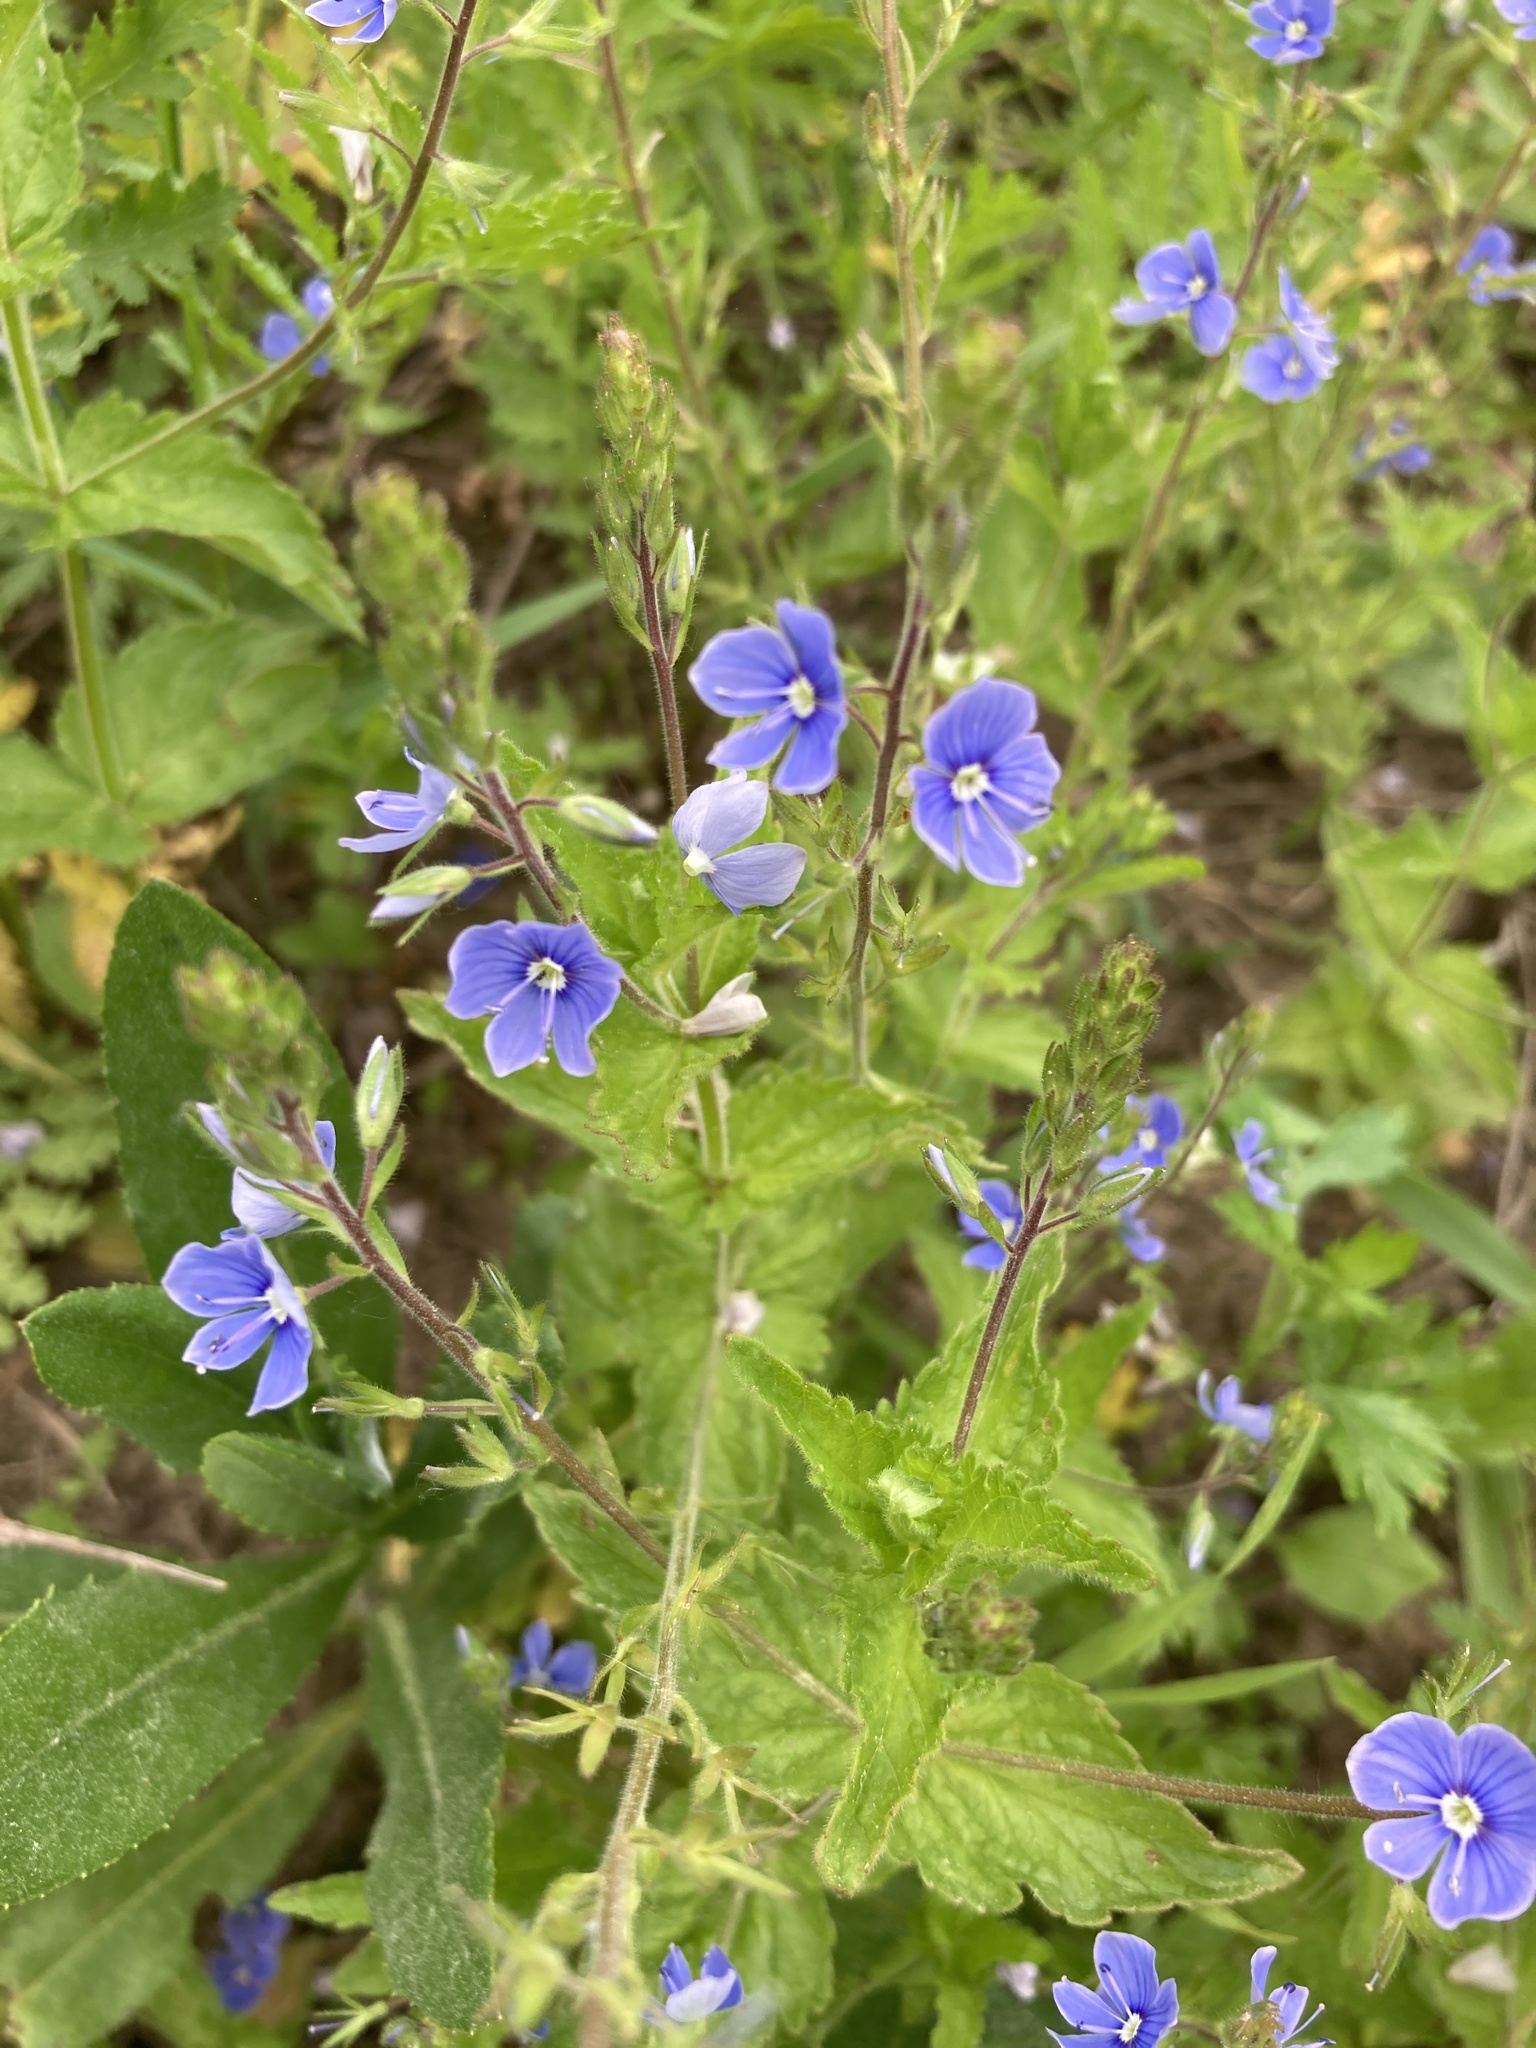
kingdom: Plantae
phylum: Tracheophyta
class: Magnoliopsida
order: Lamiales
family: Plantaginaceae
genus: Veronica
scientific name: Veronica chamaedrys
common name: Germander speedwell
